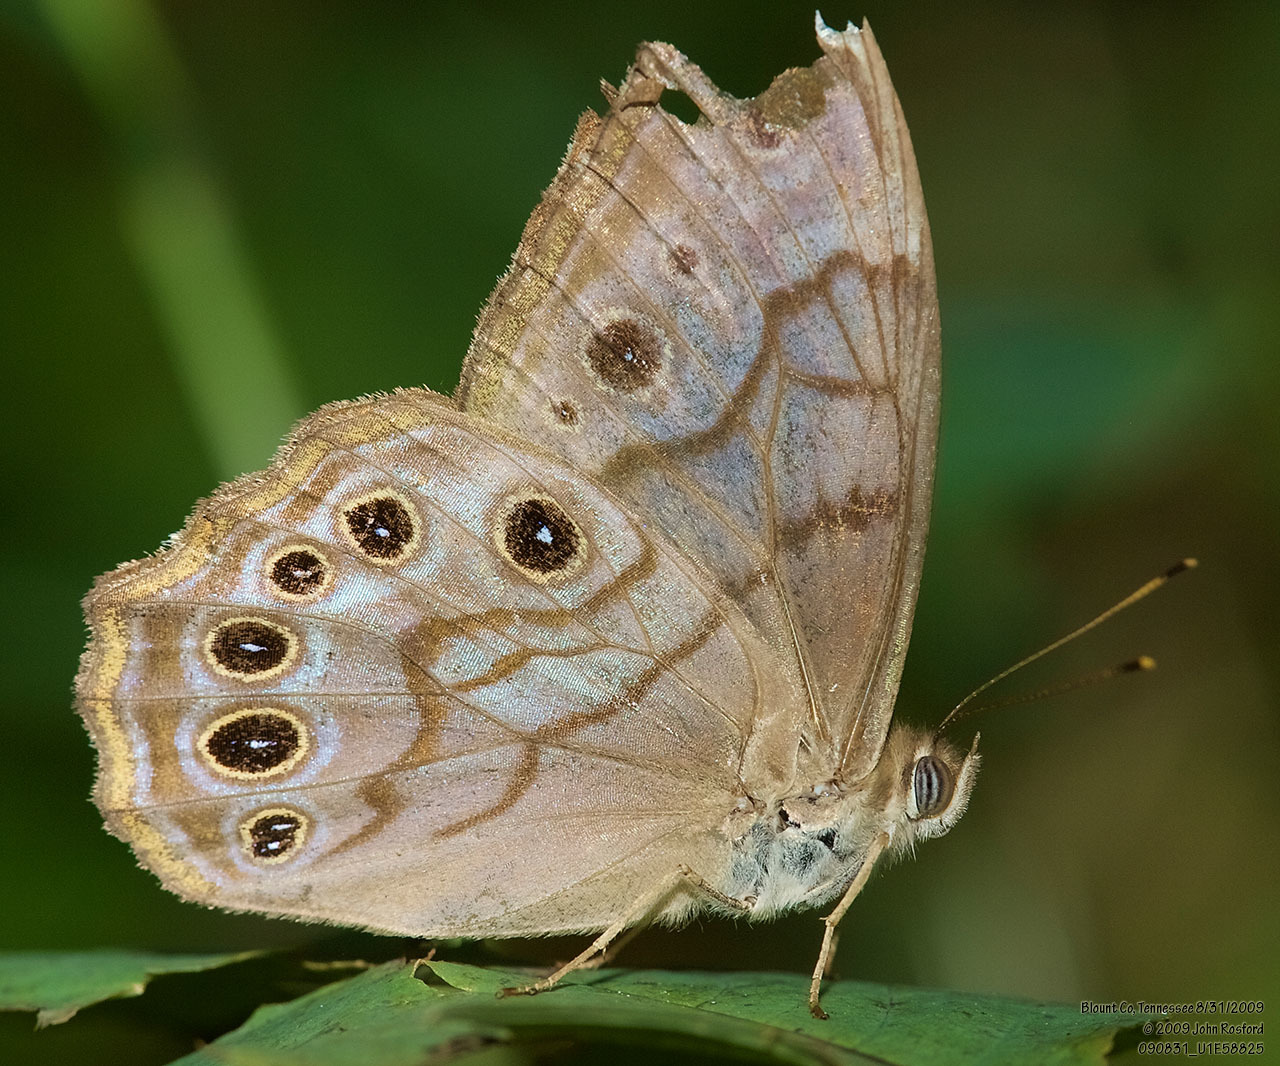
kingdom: Animalia
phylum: Arthropoda
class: Insecta
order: Lepidoptera
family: Nymphalidae
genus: Lethe
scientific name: Lethe creola
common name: Creole pearly-eye
